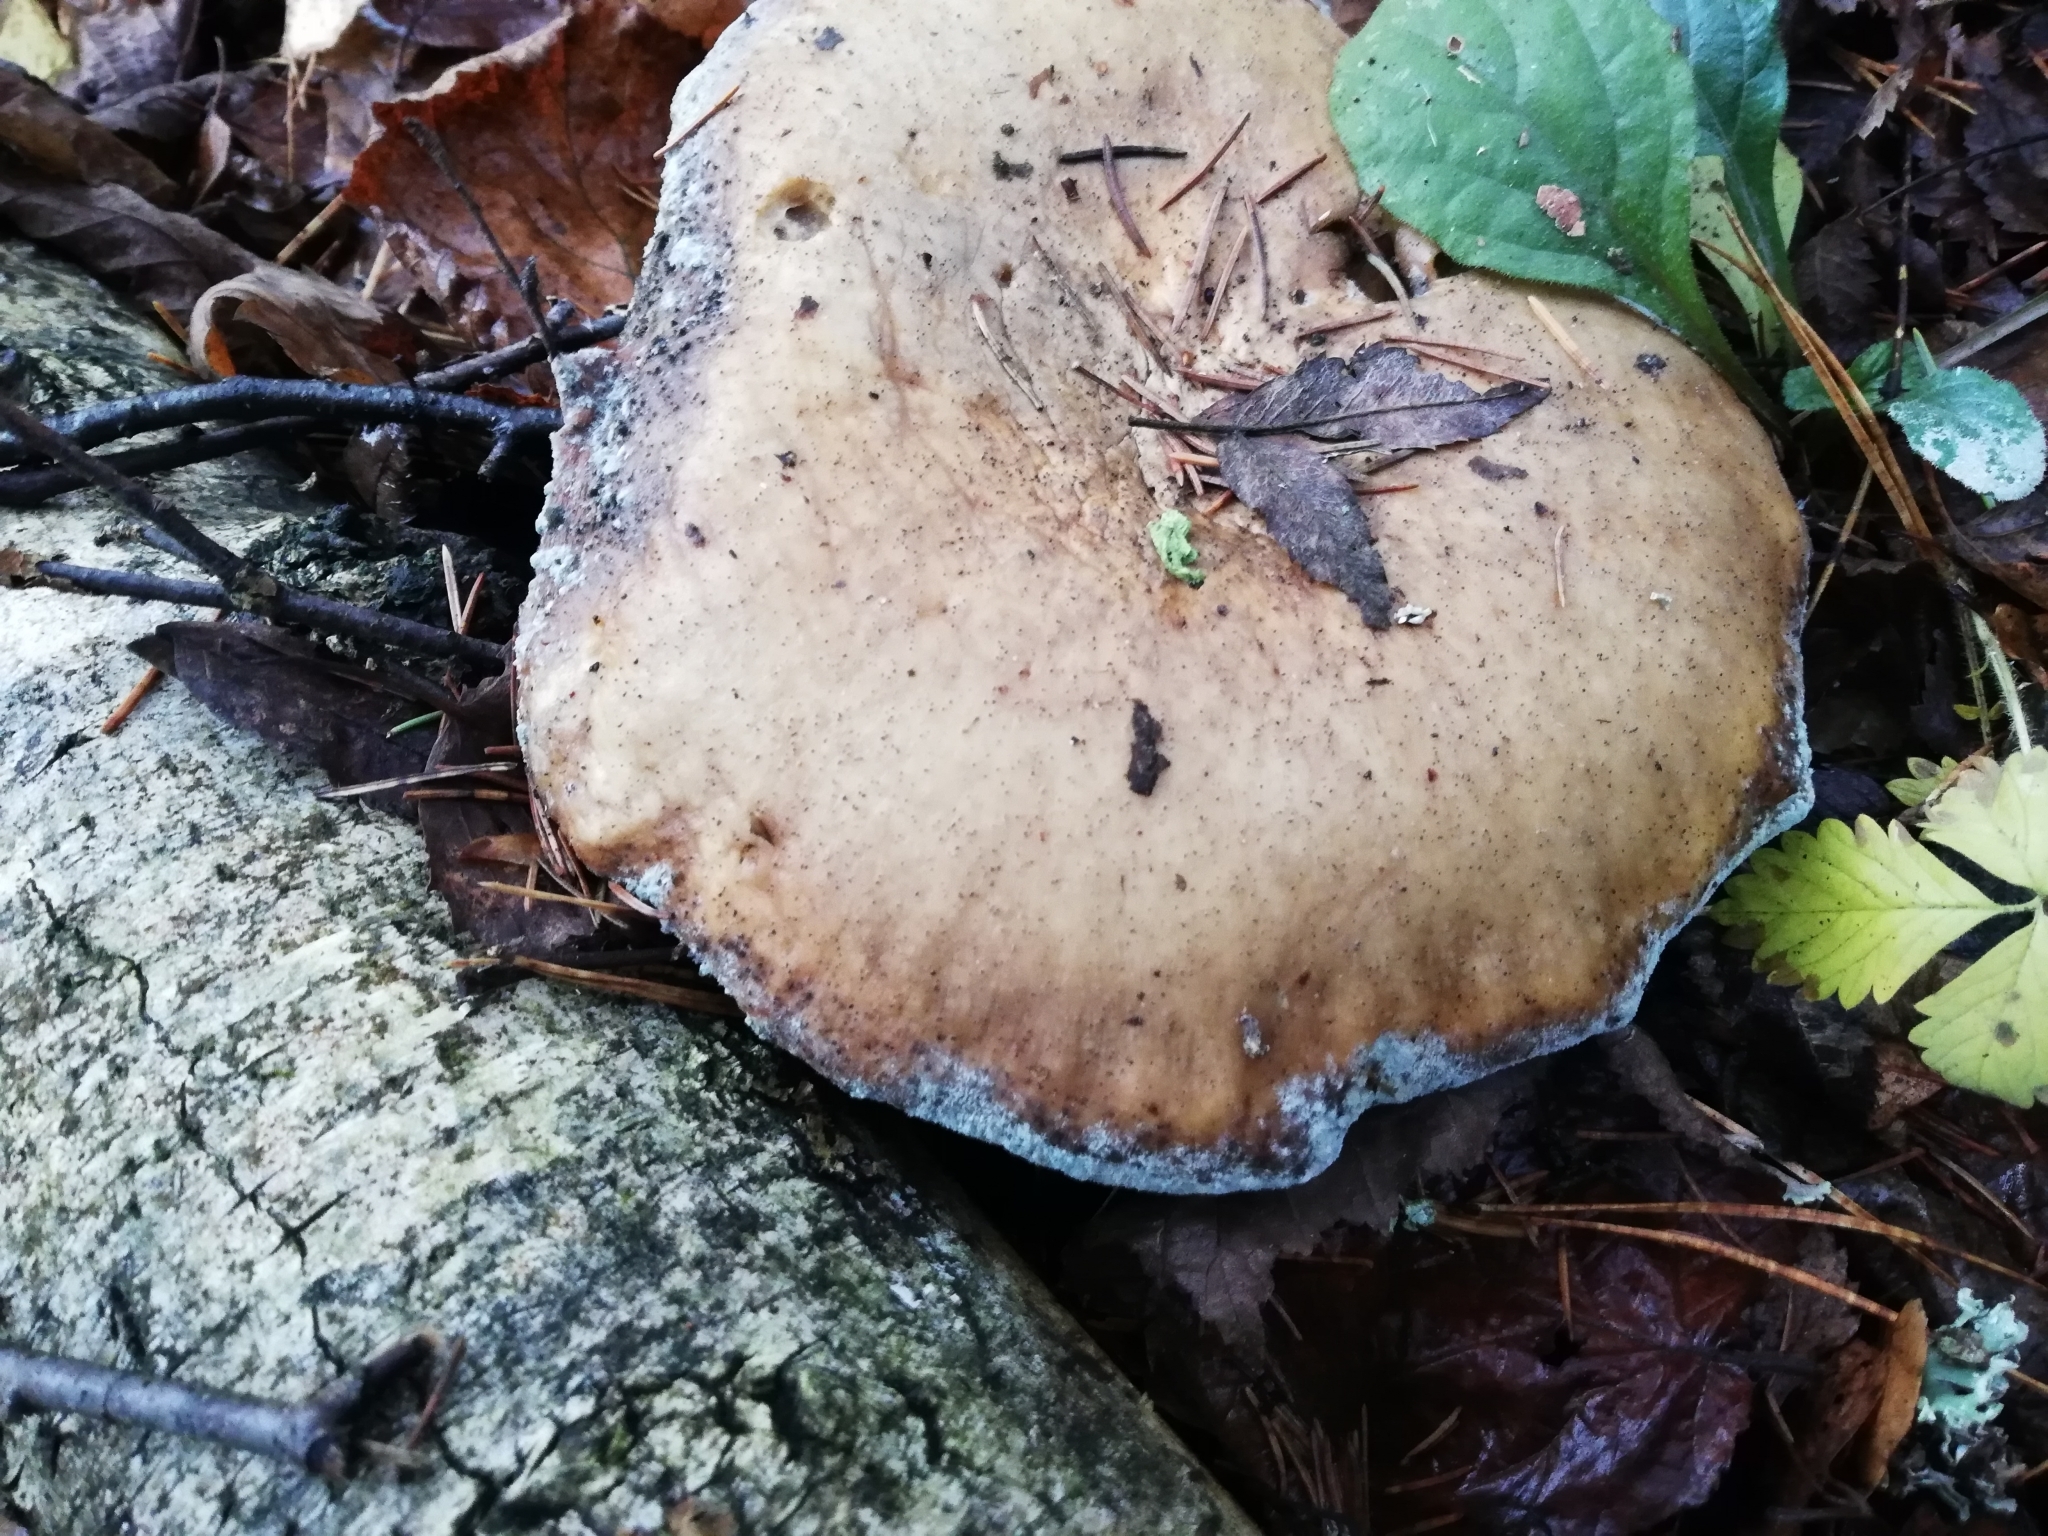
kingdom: Fungi
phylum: Basidiomycota
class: Agaricomycetes
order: Agaricales
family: Tricholomataceae
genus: Clitocybe
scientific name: Clitocybe nebularis
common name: Clouded agaric
